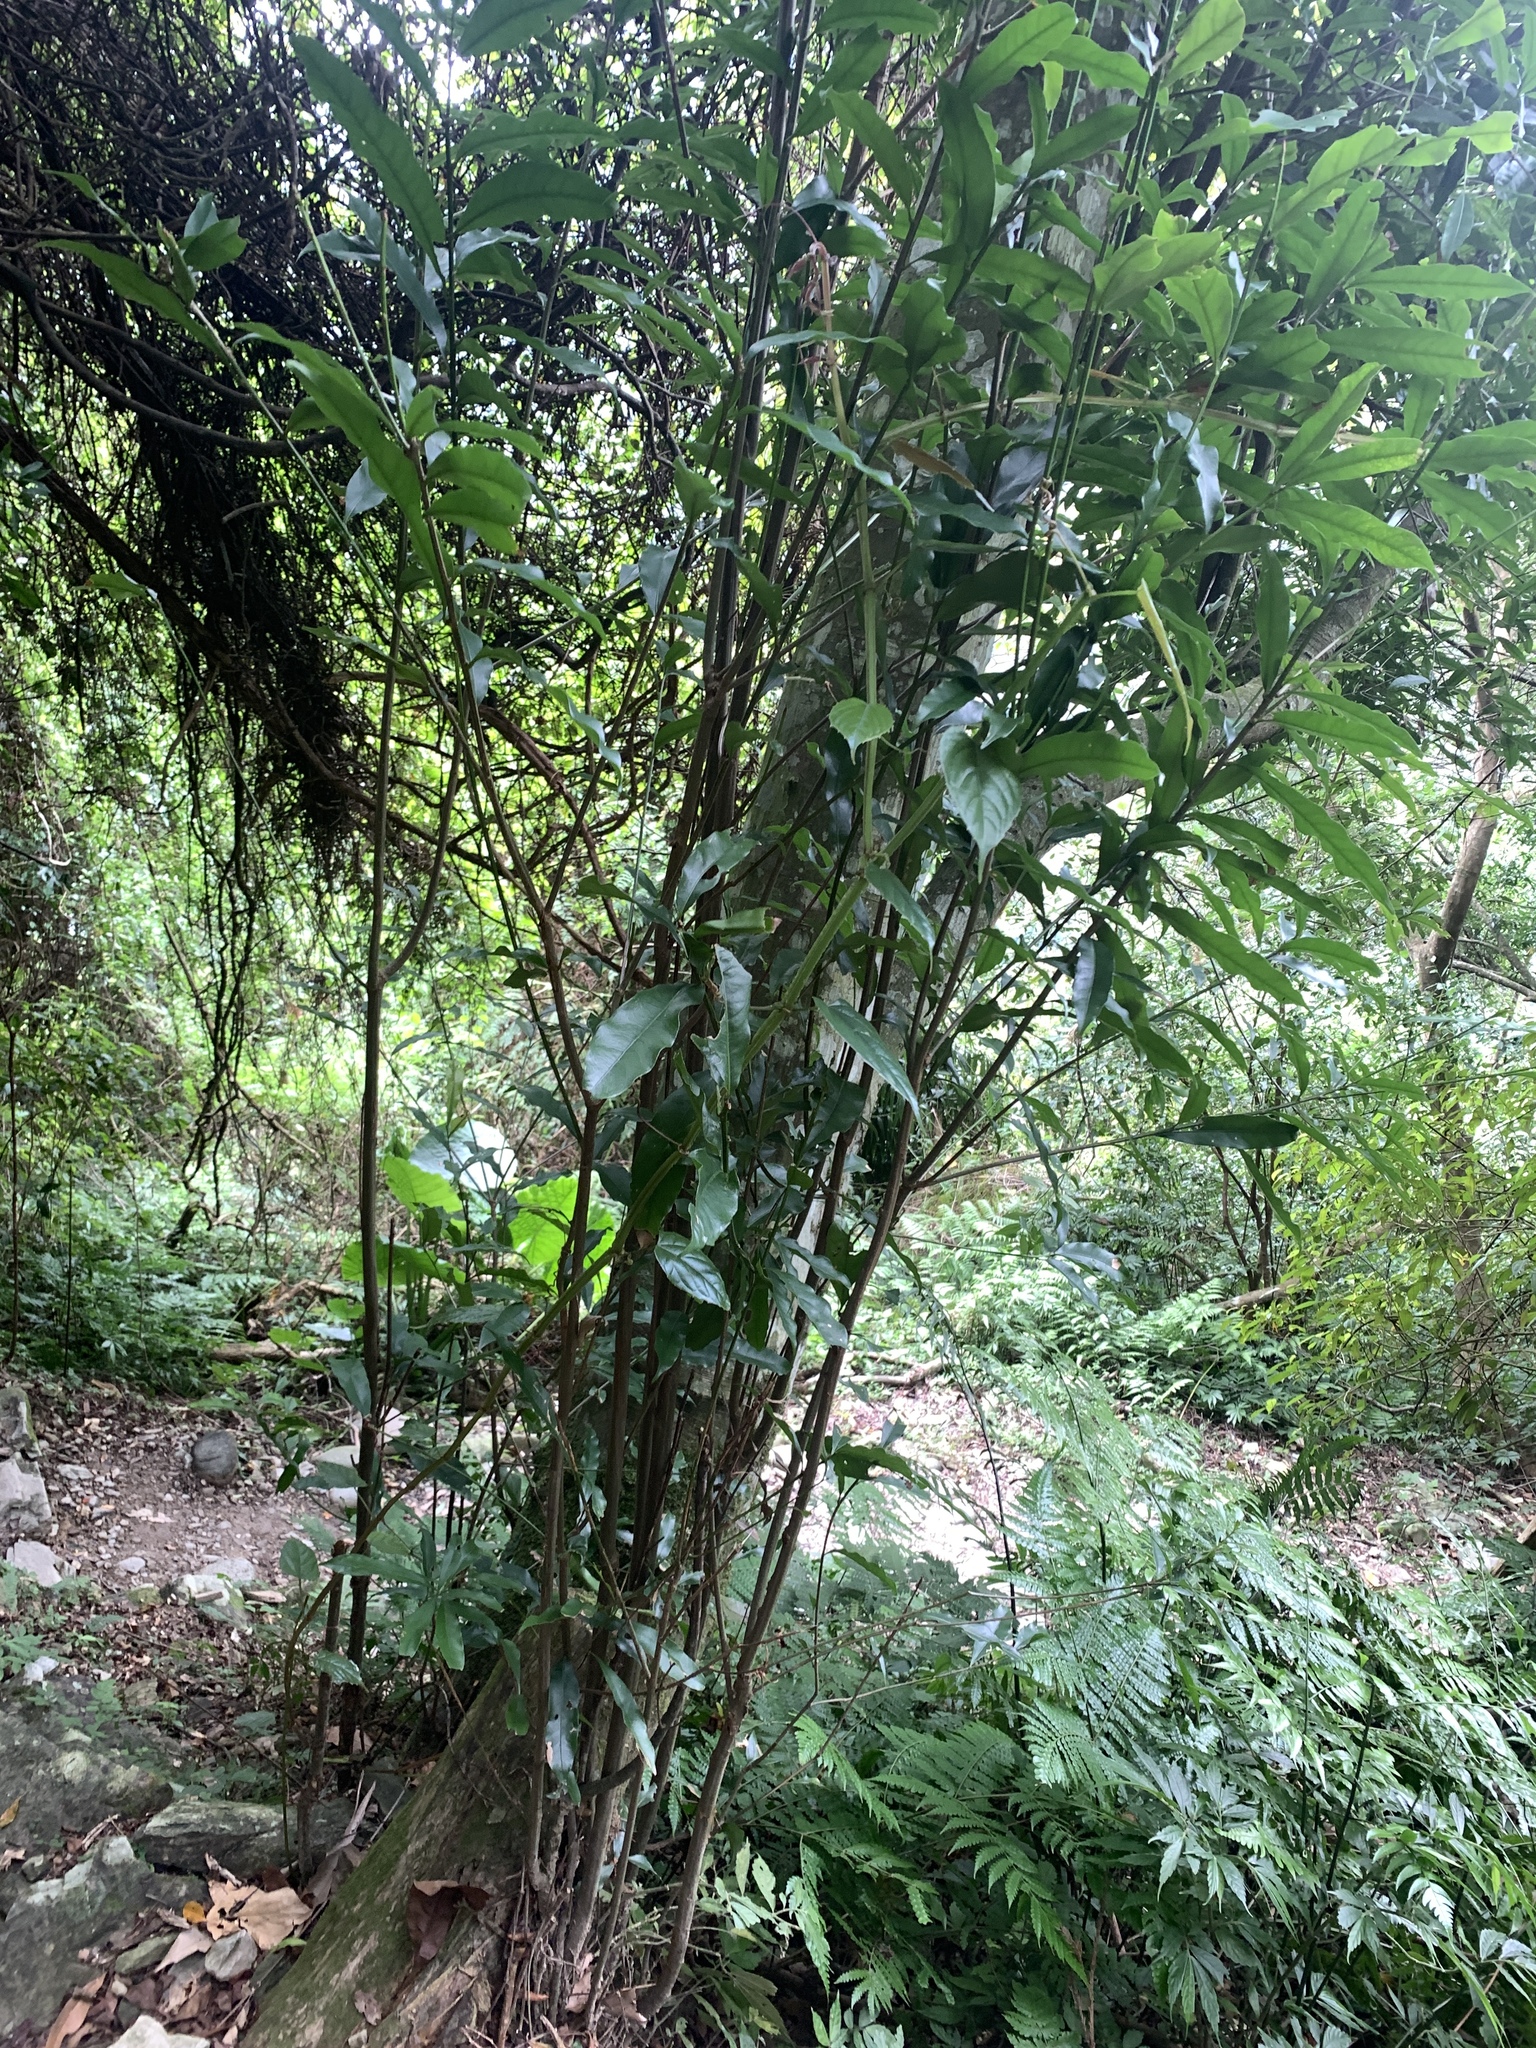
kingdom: Plantae
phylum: Tracheophyta
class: Magnoliopsida
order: Fagales
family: Fagaceae
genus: Lithocarpus
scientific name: Lithocarpus hancei
